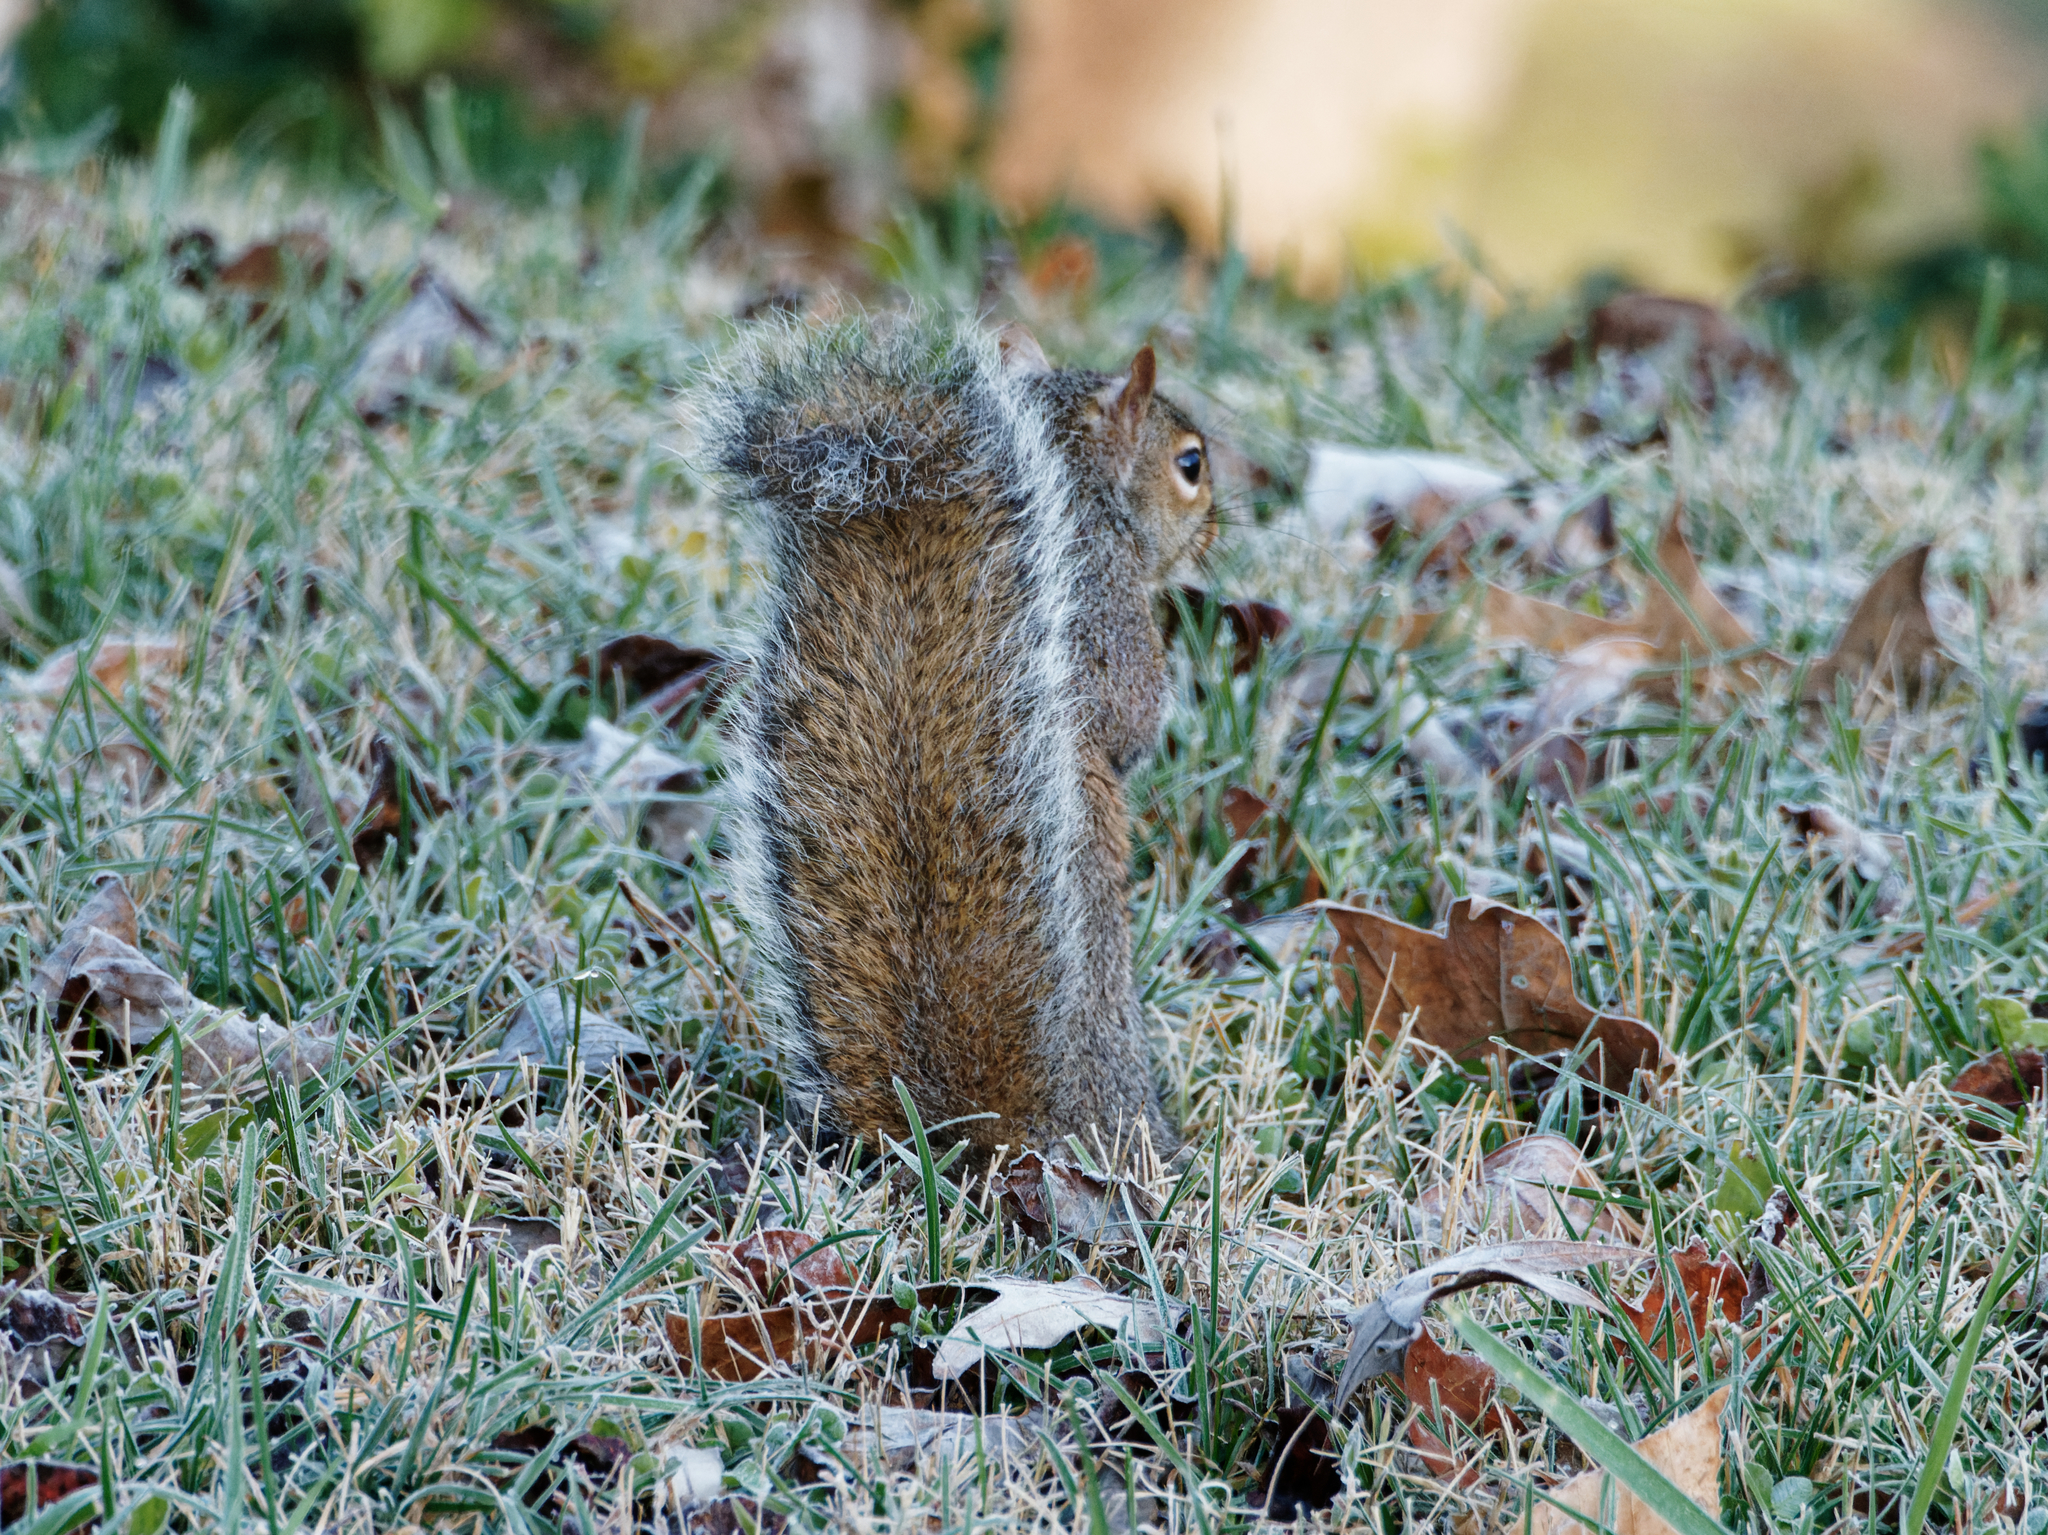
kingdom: Animalia
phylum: Chordata
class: Mammalia
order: Rodentia
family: Sciuridae
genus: Sciurus
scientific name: Sciurus carolinensis
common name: Eastern gray squirrel
